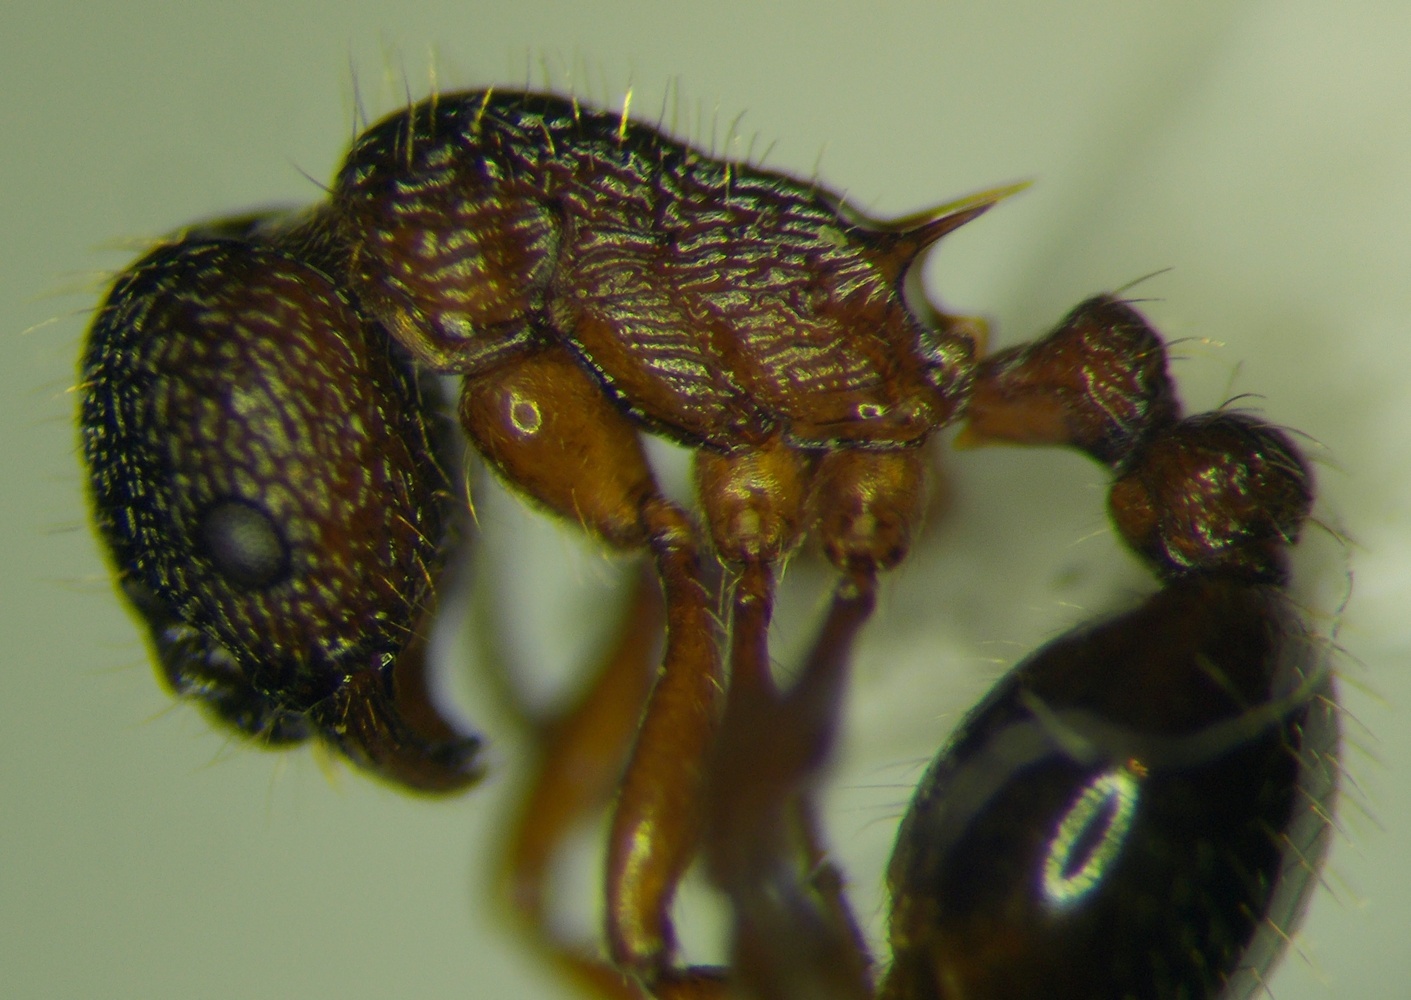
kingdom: Animalia
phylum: Arthropoda
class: Insecta
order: Hymenoptera
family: Formicidae
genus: Myrmica
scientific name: Myrmica schencki
